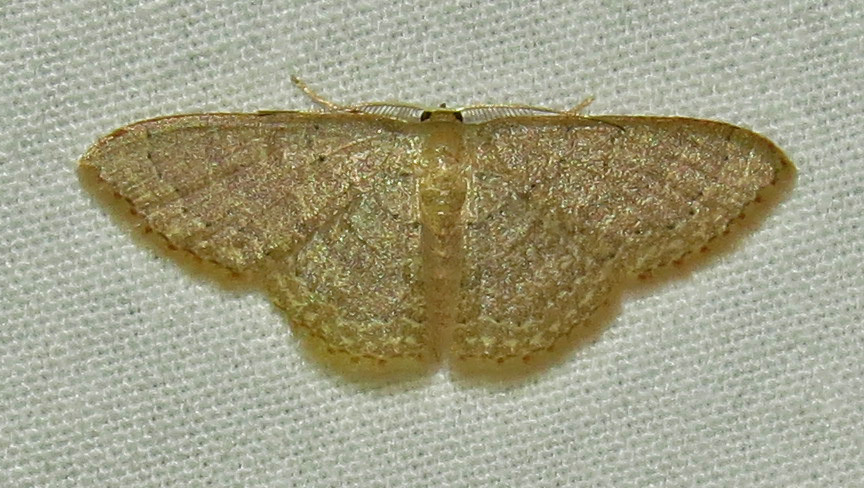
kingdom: Animalia
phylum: Arthropoda
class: Insecta
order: Lepidoptera
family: Geometridae
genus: Pleuroprucha
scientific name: Pleuroprucha insulsaria
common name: Common tan wave
